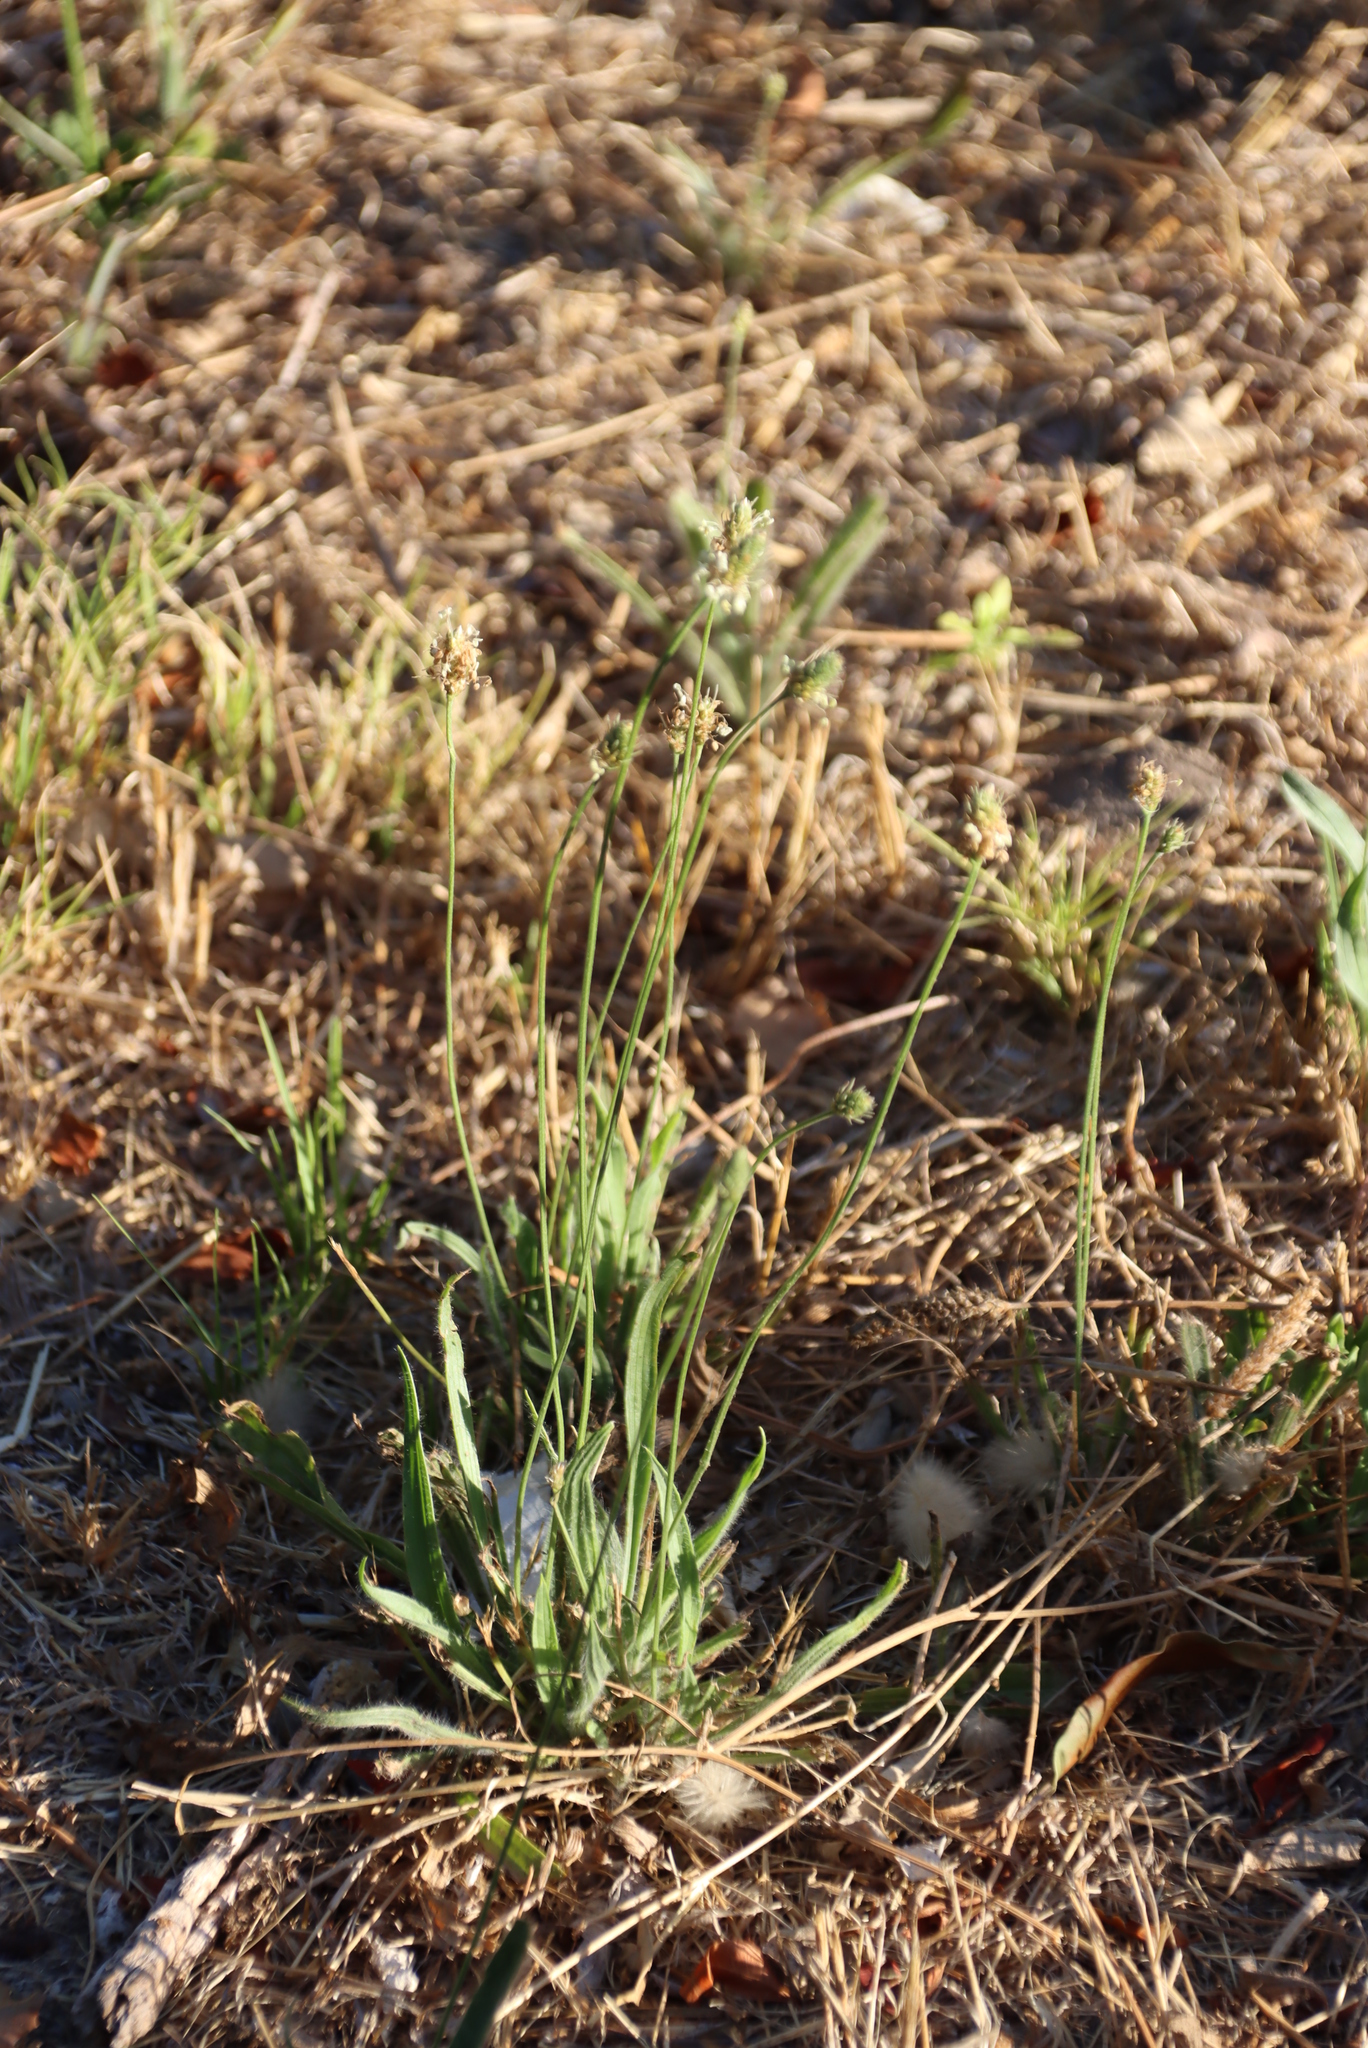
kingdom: Plantae
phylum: Tracheophyta
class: Magnoliopsida
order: Lamiales
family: Plantaginaceae
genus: Plantago
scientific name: Plantago lanceolata
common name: Ribwort plantain
